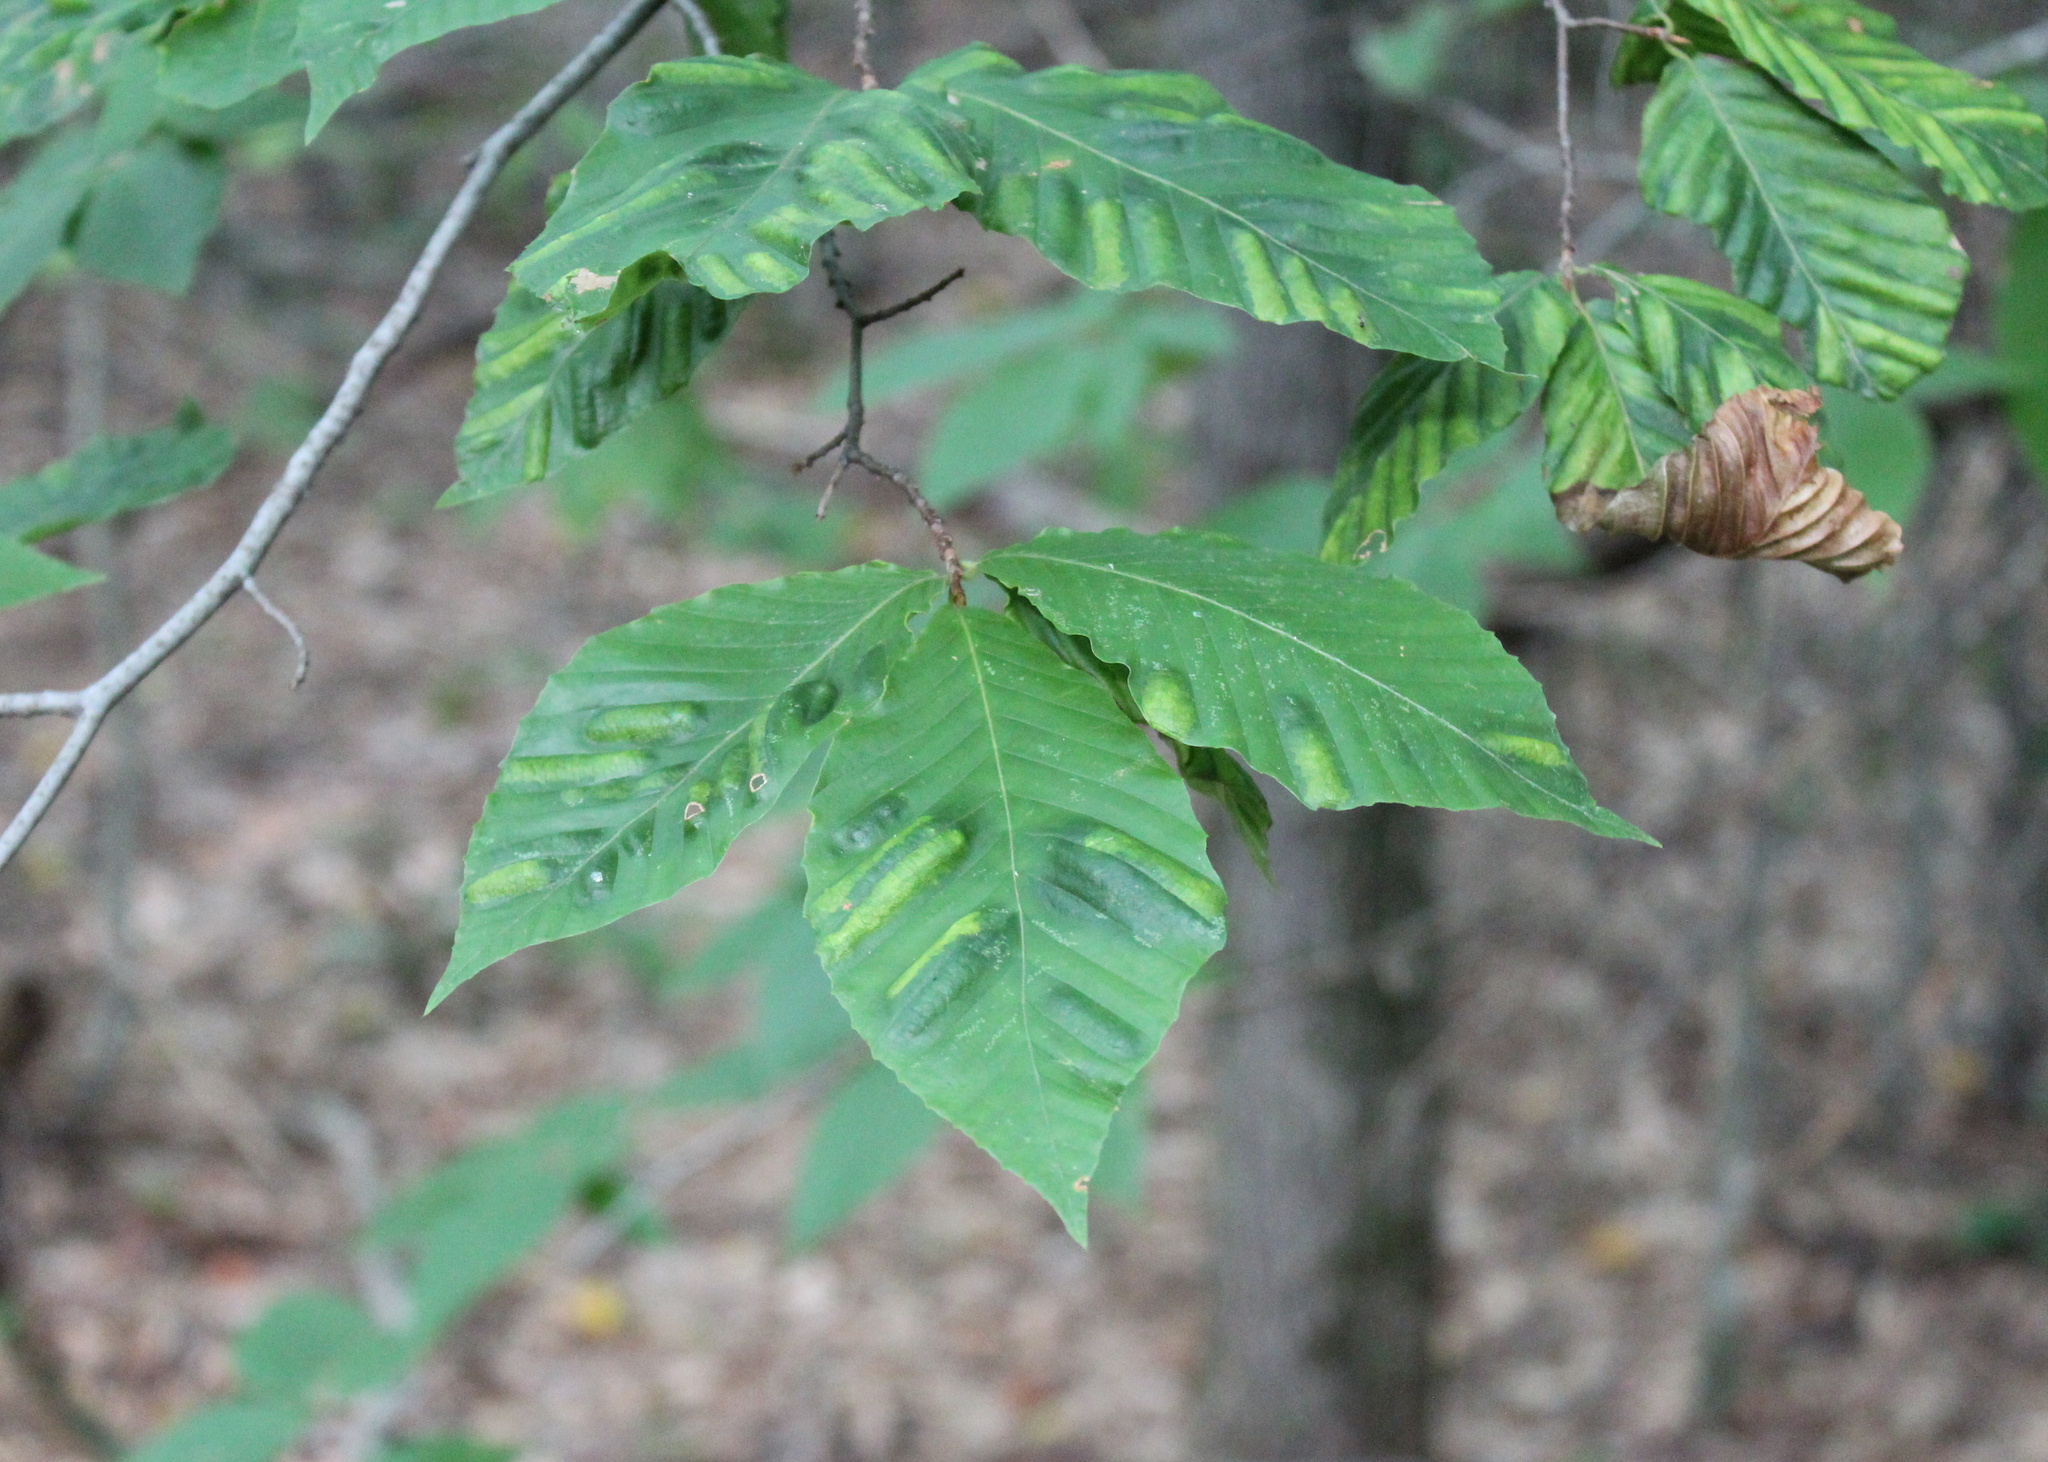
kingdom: Animalia
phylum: Nematoda
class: Chromadorea
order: Rhabditida
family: Anguinidae
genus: Litylenchus
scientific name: Litylenchus crenatae
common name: Beech leaf disease
